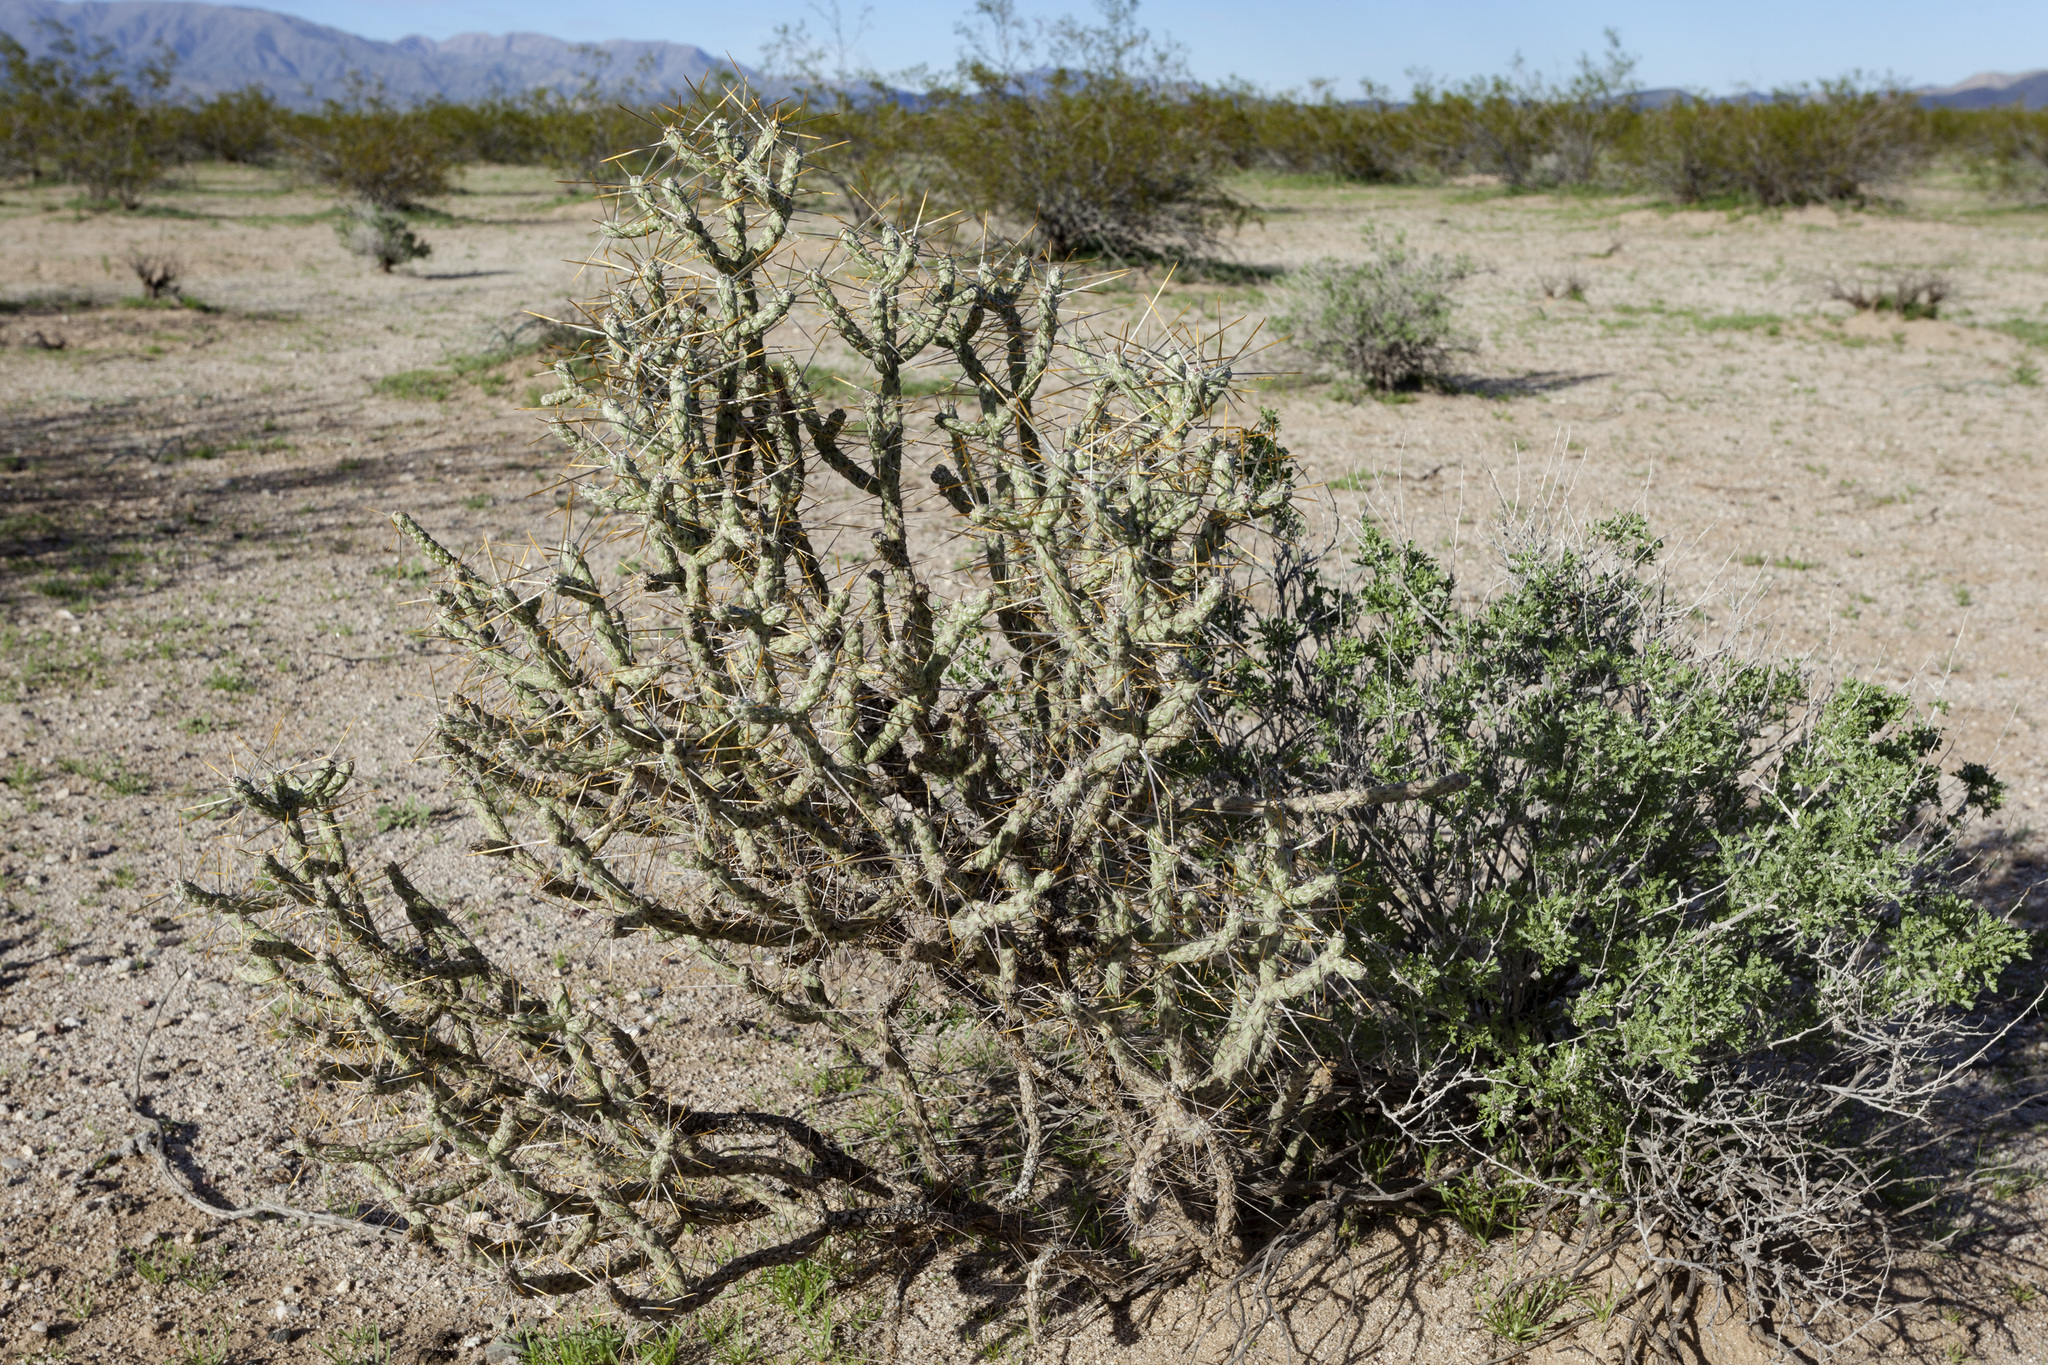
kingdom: Plantae
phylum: Tracheophyta
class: Magnoliopsida
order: Caryophyllales
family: Cactaceae
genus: Cylindropuntia
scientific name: Cylindropuntia ramosissima
